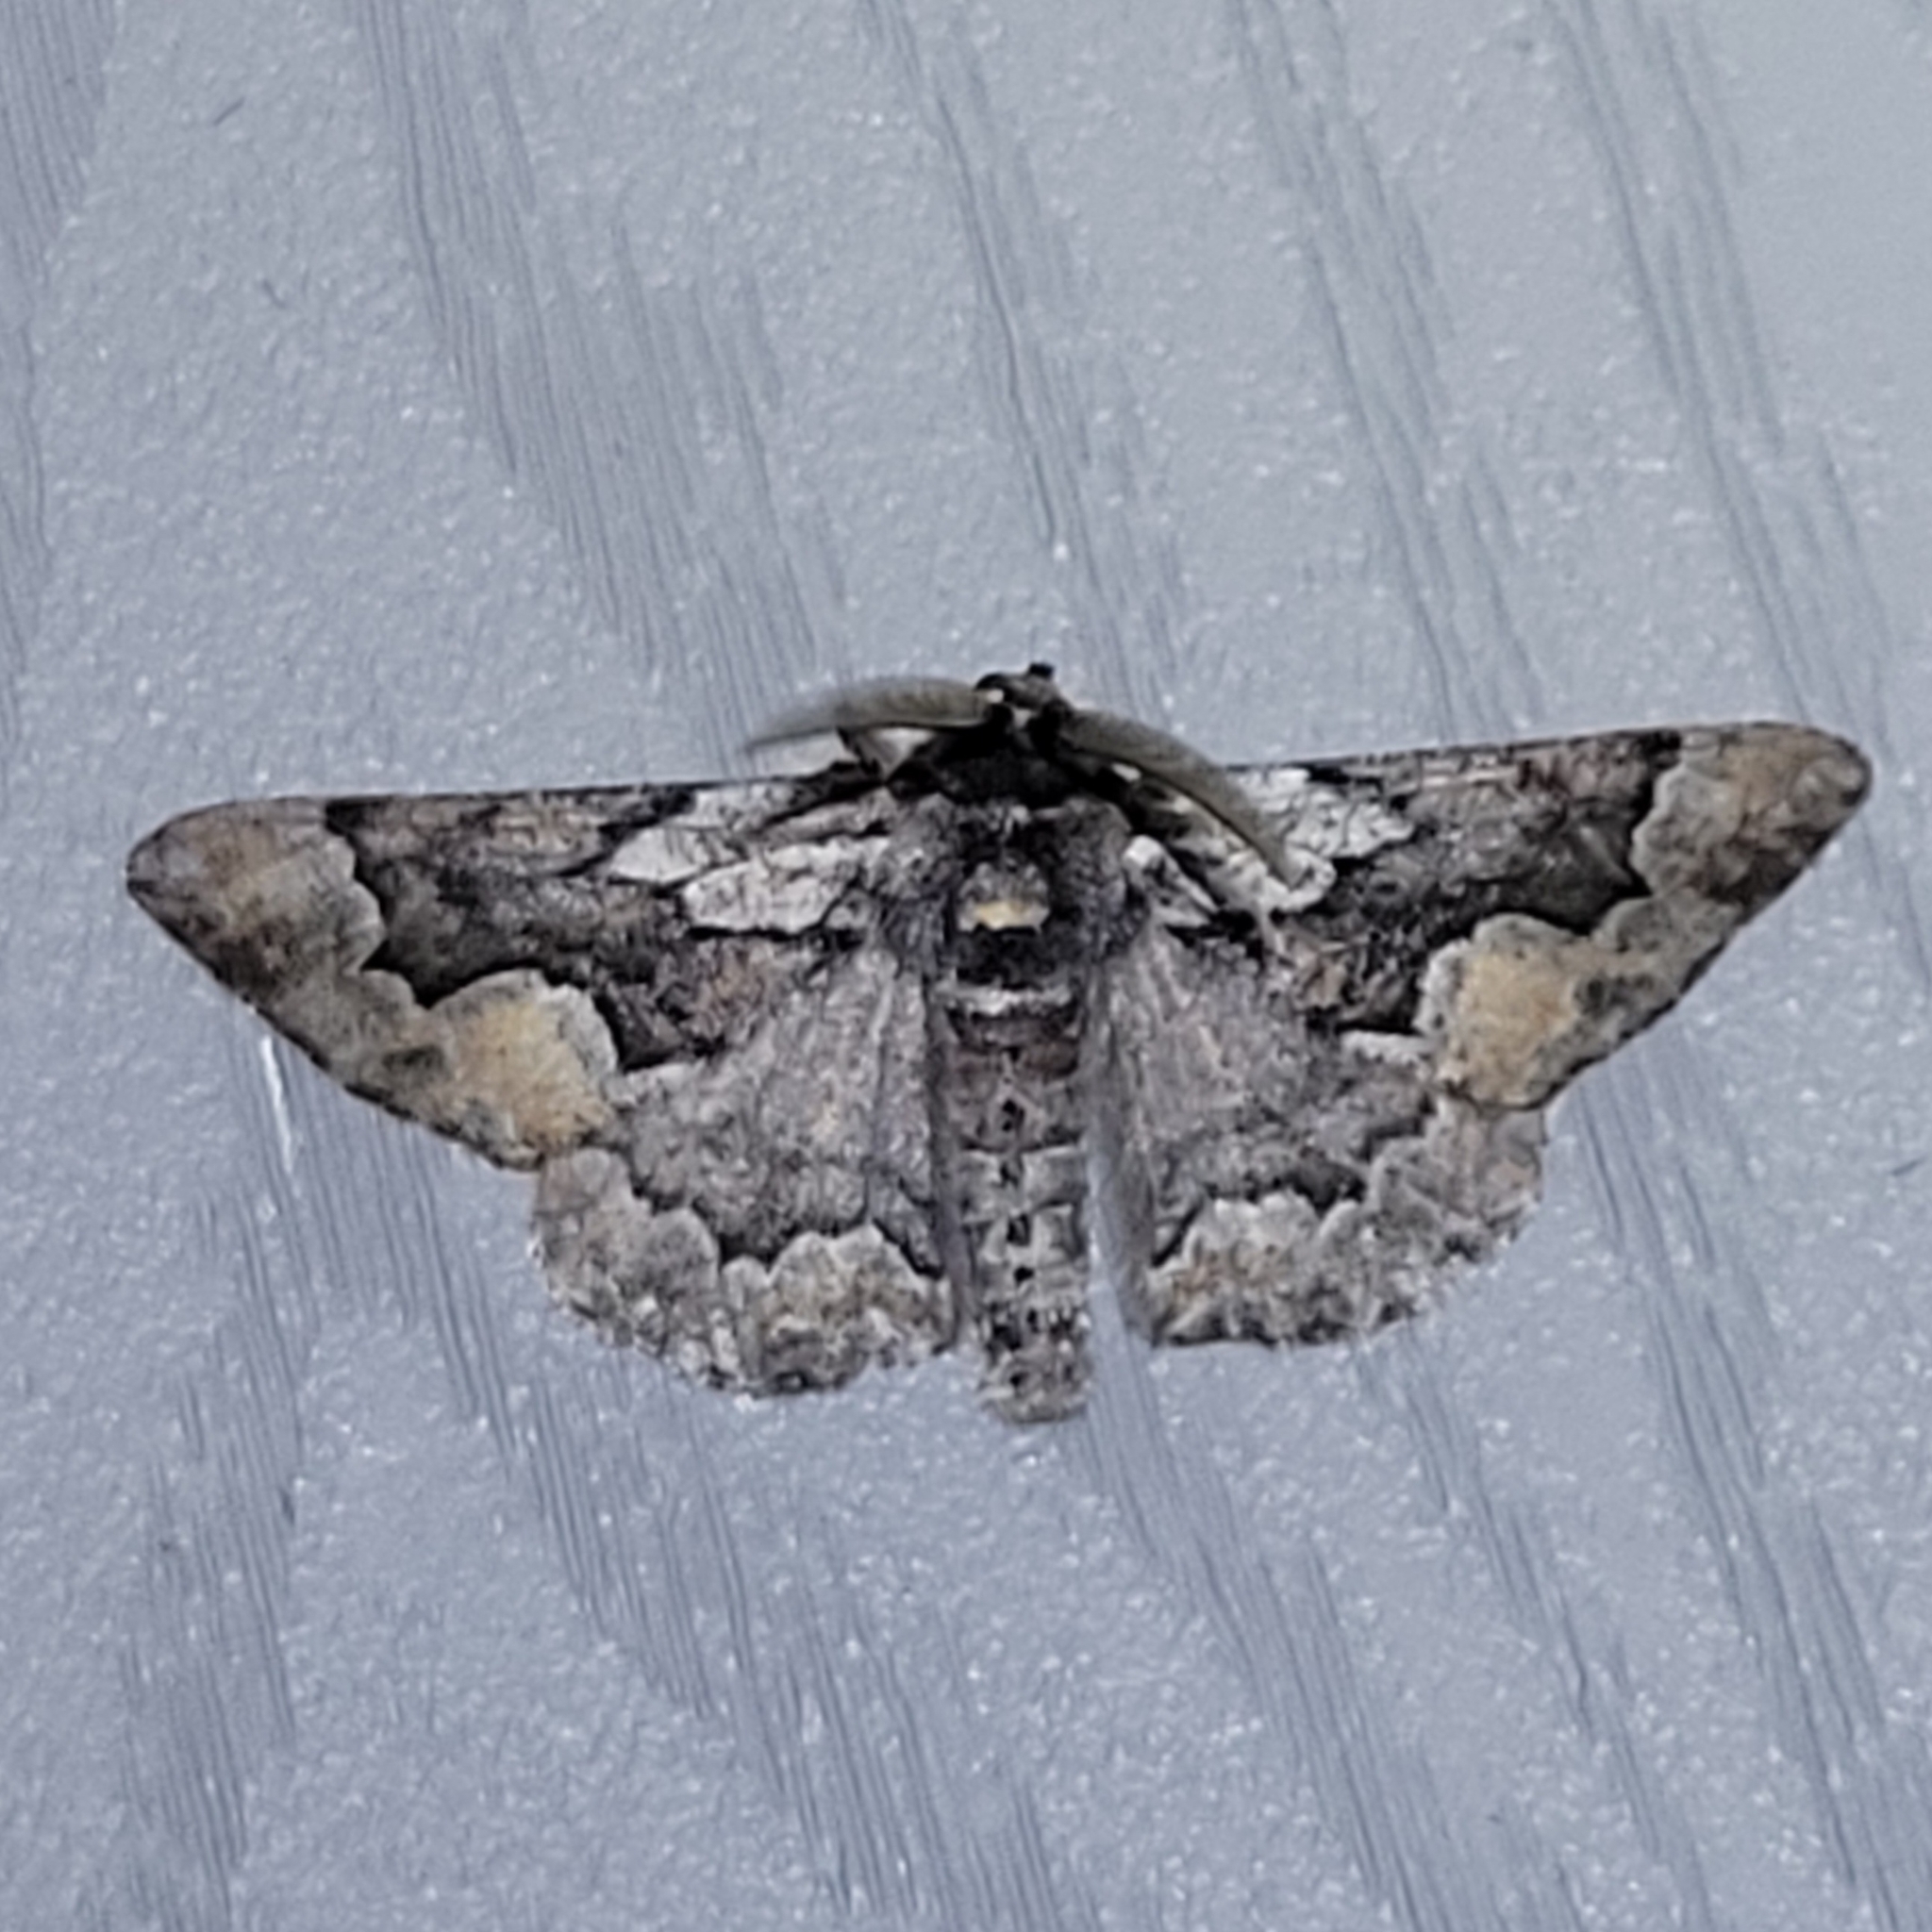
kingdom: Animalia
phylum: Arthropoda
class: Insecta
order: Lepidoptera
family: Geometridae
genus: Phaeoura
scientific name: Phaeoura mexicanaria
